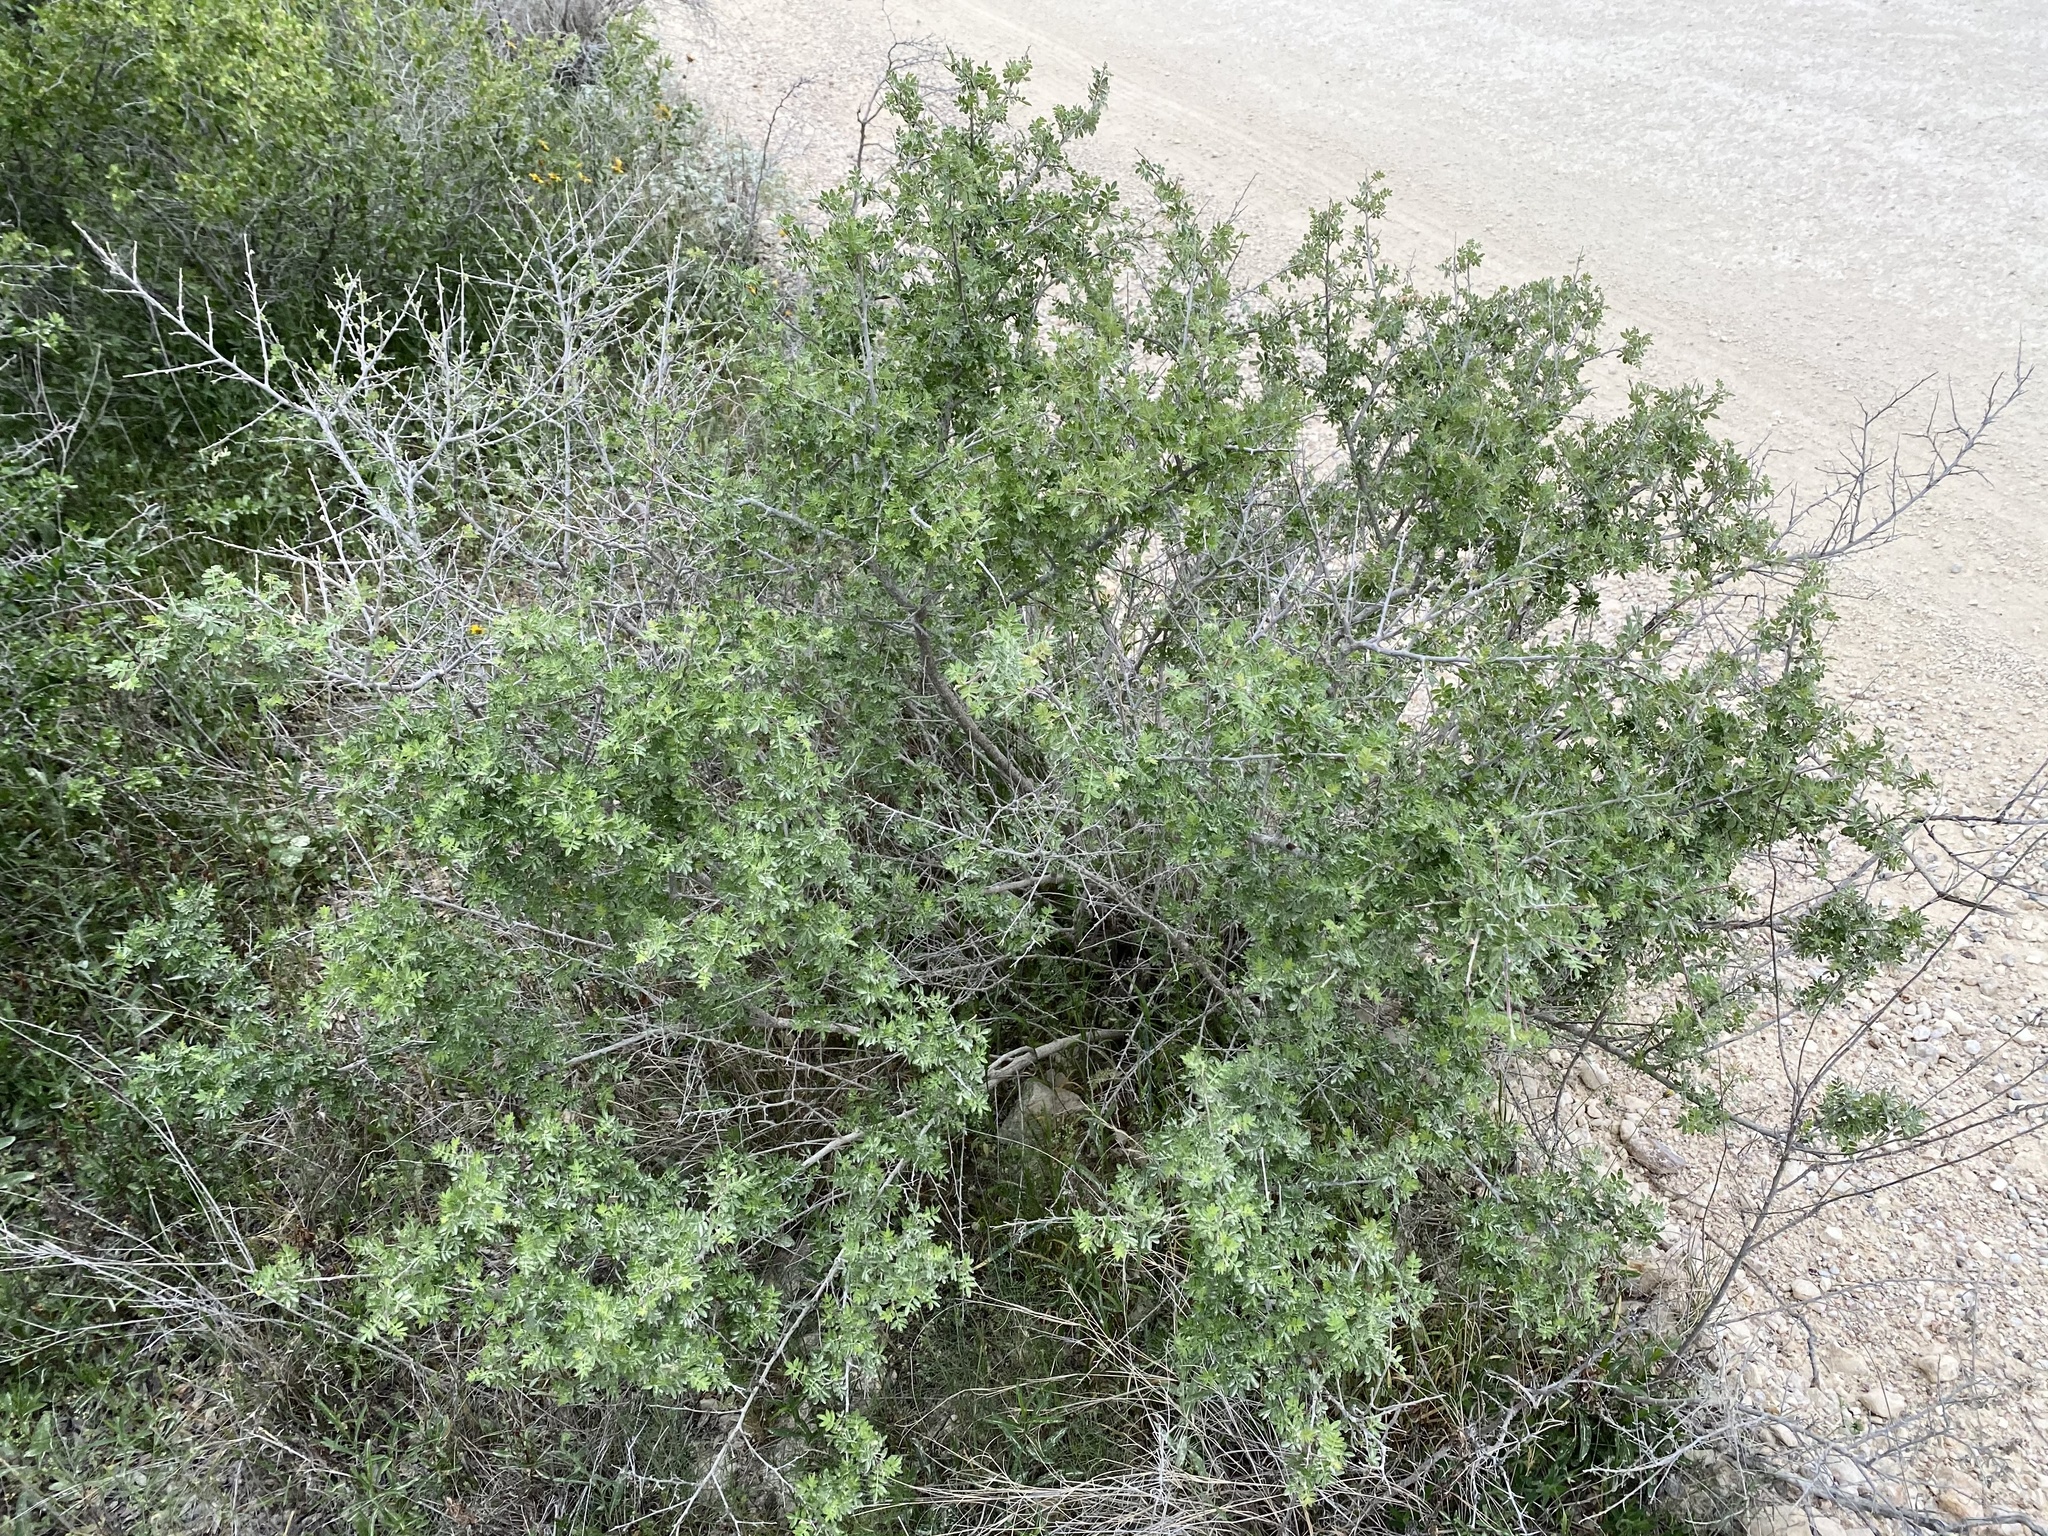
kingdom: Plantae
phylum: Tracheophyta
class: Magnoliopsida
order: Sapindales
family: Anacardiaceae
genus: Rhus
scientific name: Rhus microphylla
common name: Desert sumac
